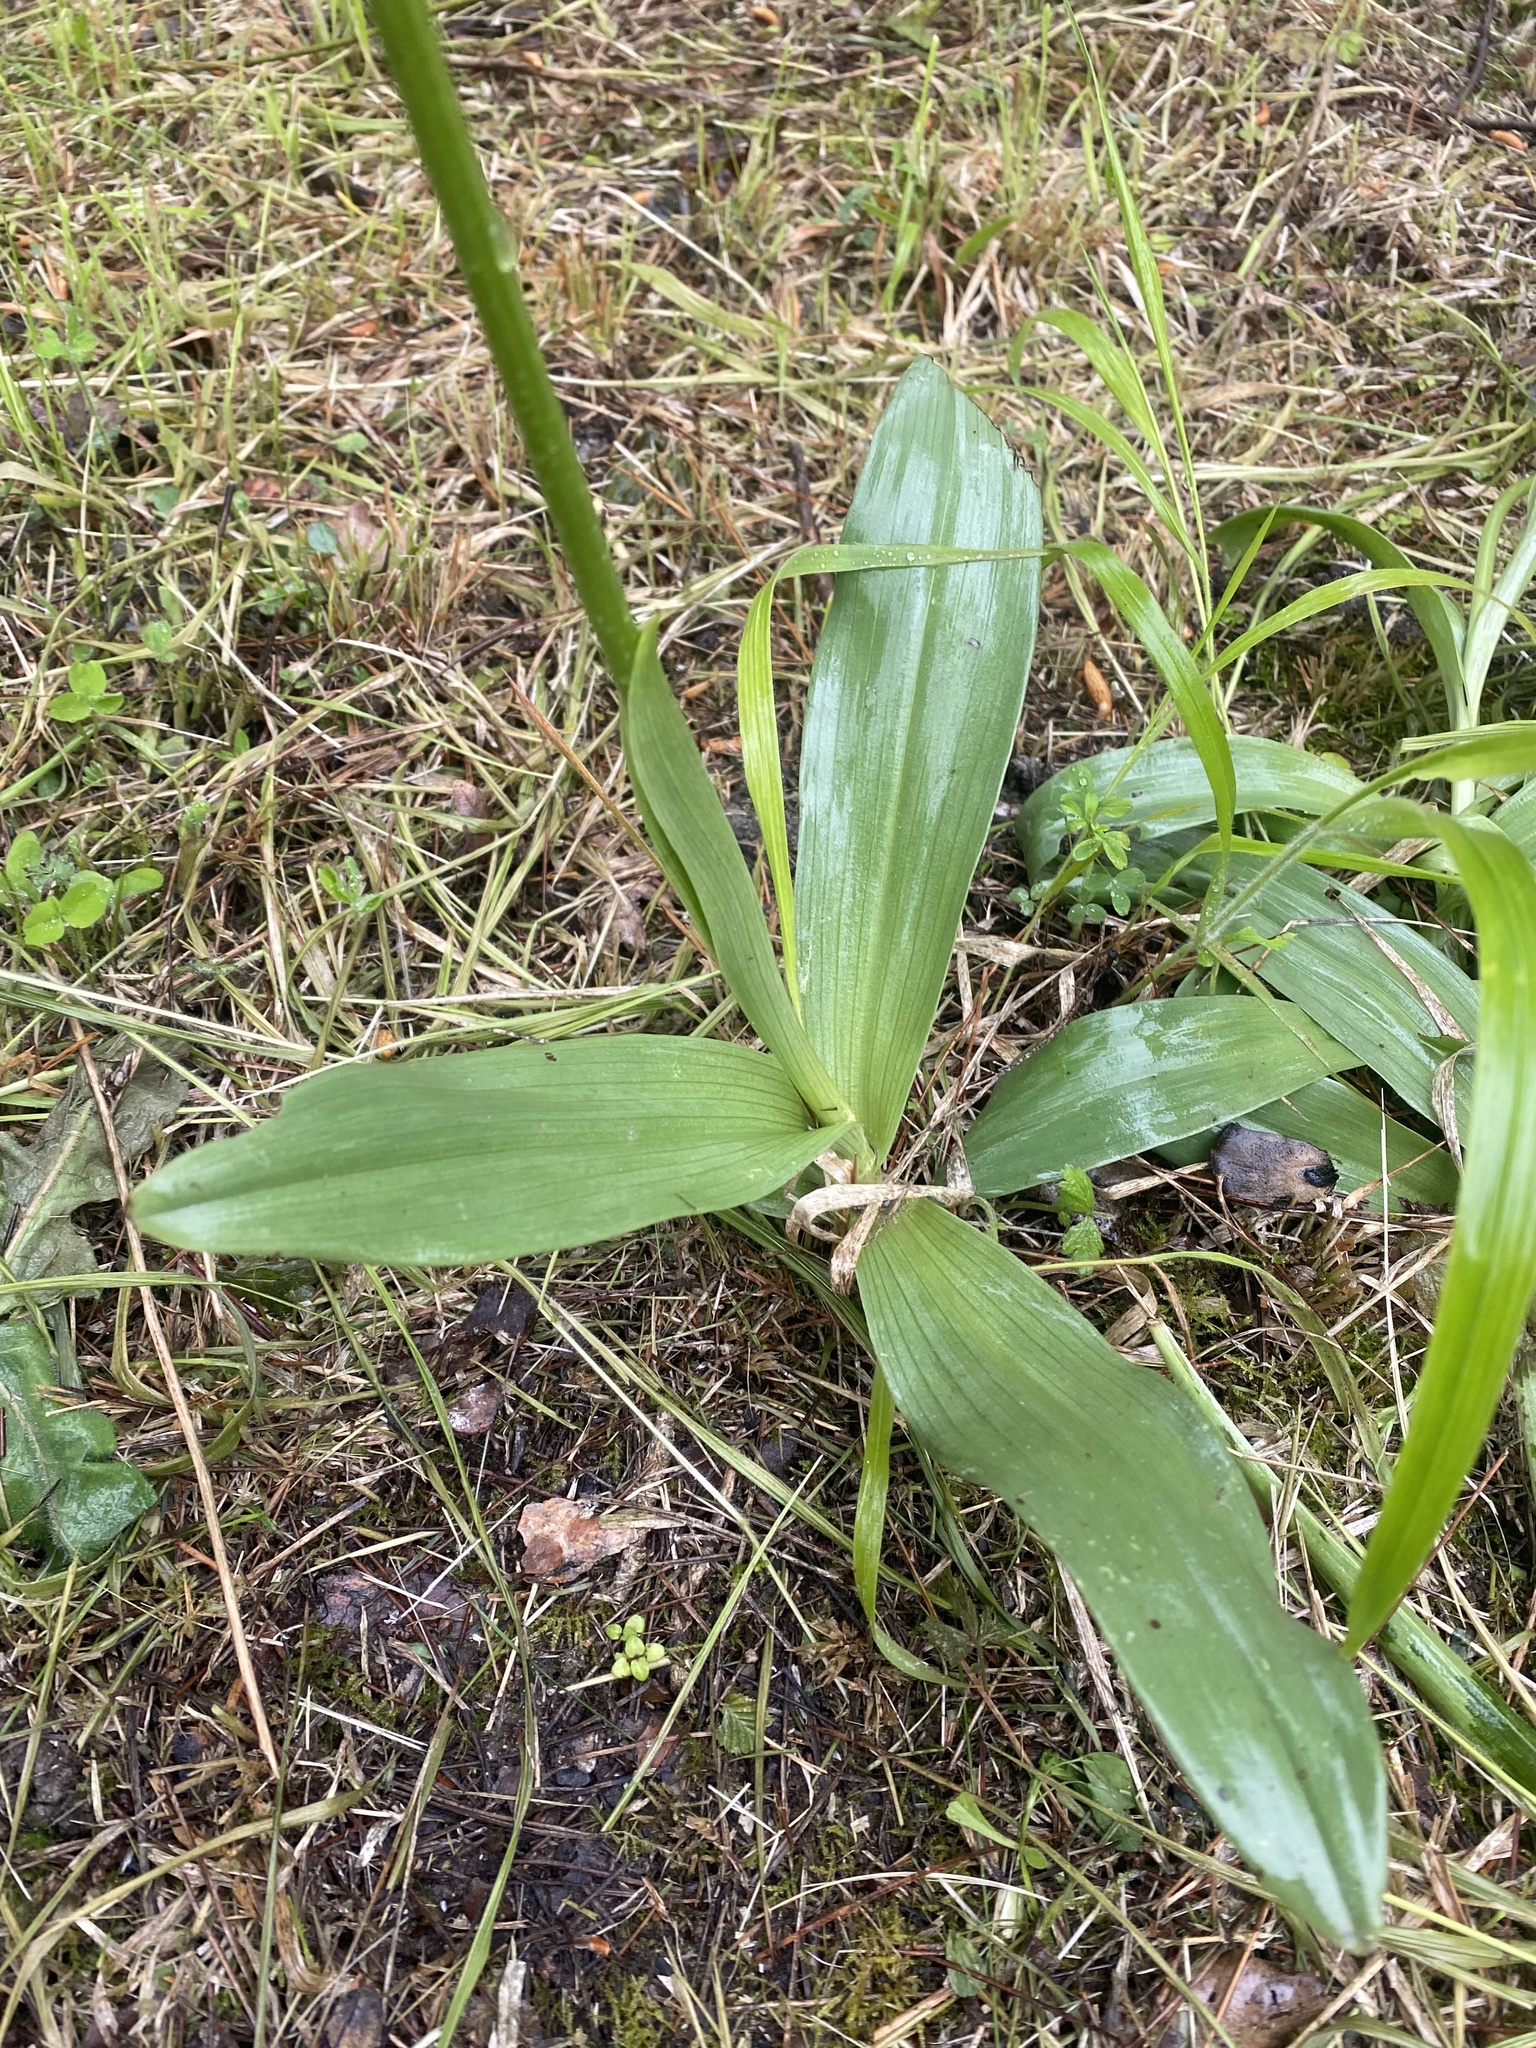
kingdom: Plantae
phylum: Tracheophyta
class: Liliopsida
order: Asparagales
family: Orchidaceae
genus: Orchis
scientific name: Orchis punctulata
